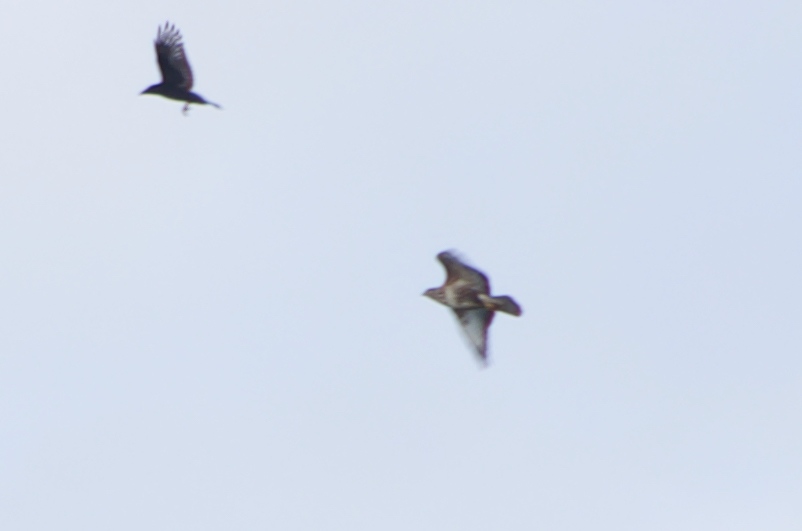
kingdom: Animalia
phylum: Chordata
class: Aves
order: Accipitriformes
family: Accipitridae
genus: Buteo
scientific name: Buteo buteo
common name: Common buzzard
